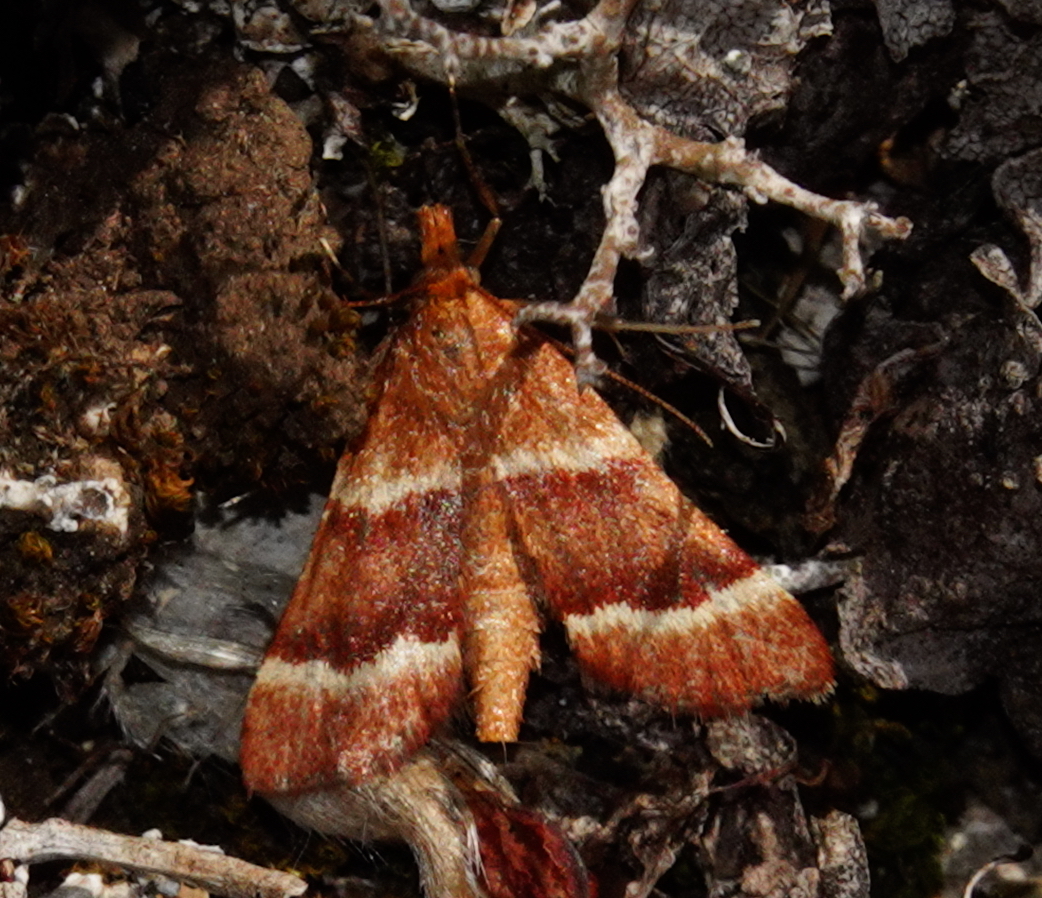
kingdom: Animalia
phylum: Arthropoda
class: Insecta
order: Lepidoptera
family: Pyralidae
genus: Stemmatophora
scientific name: Stemmatophora combustalis
